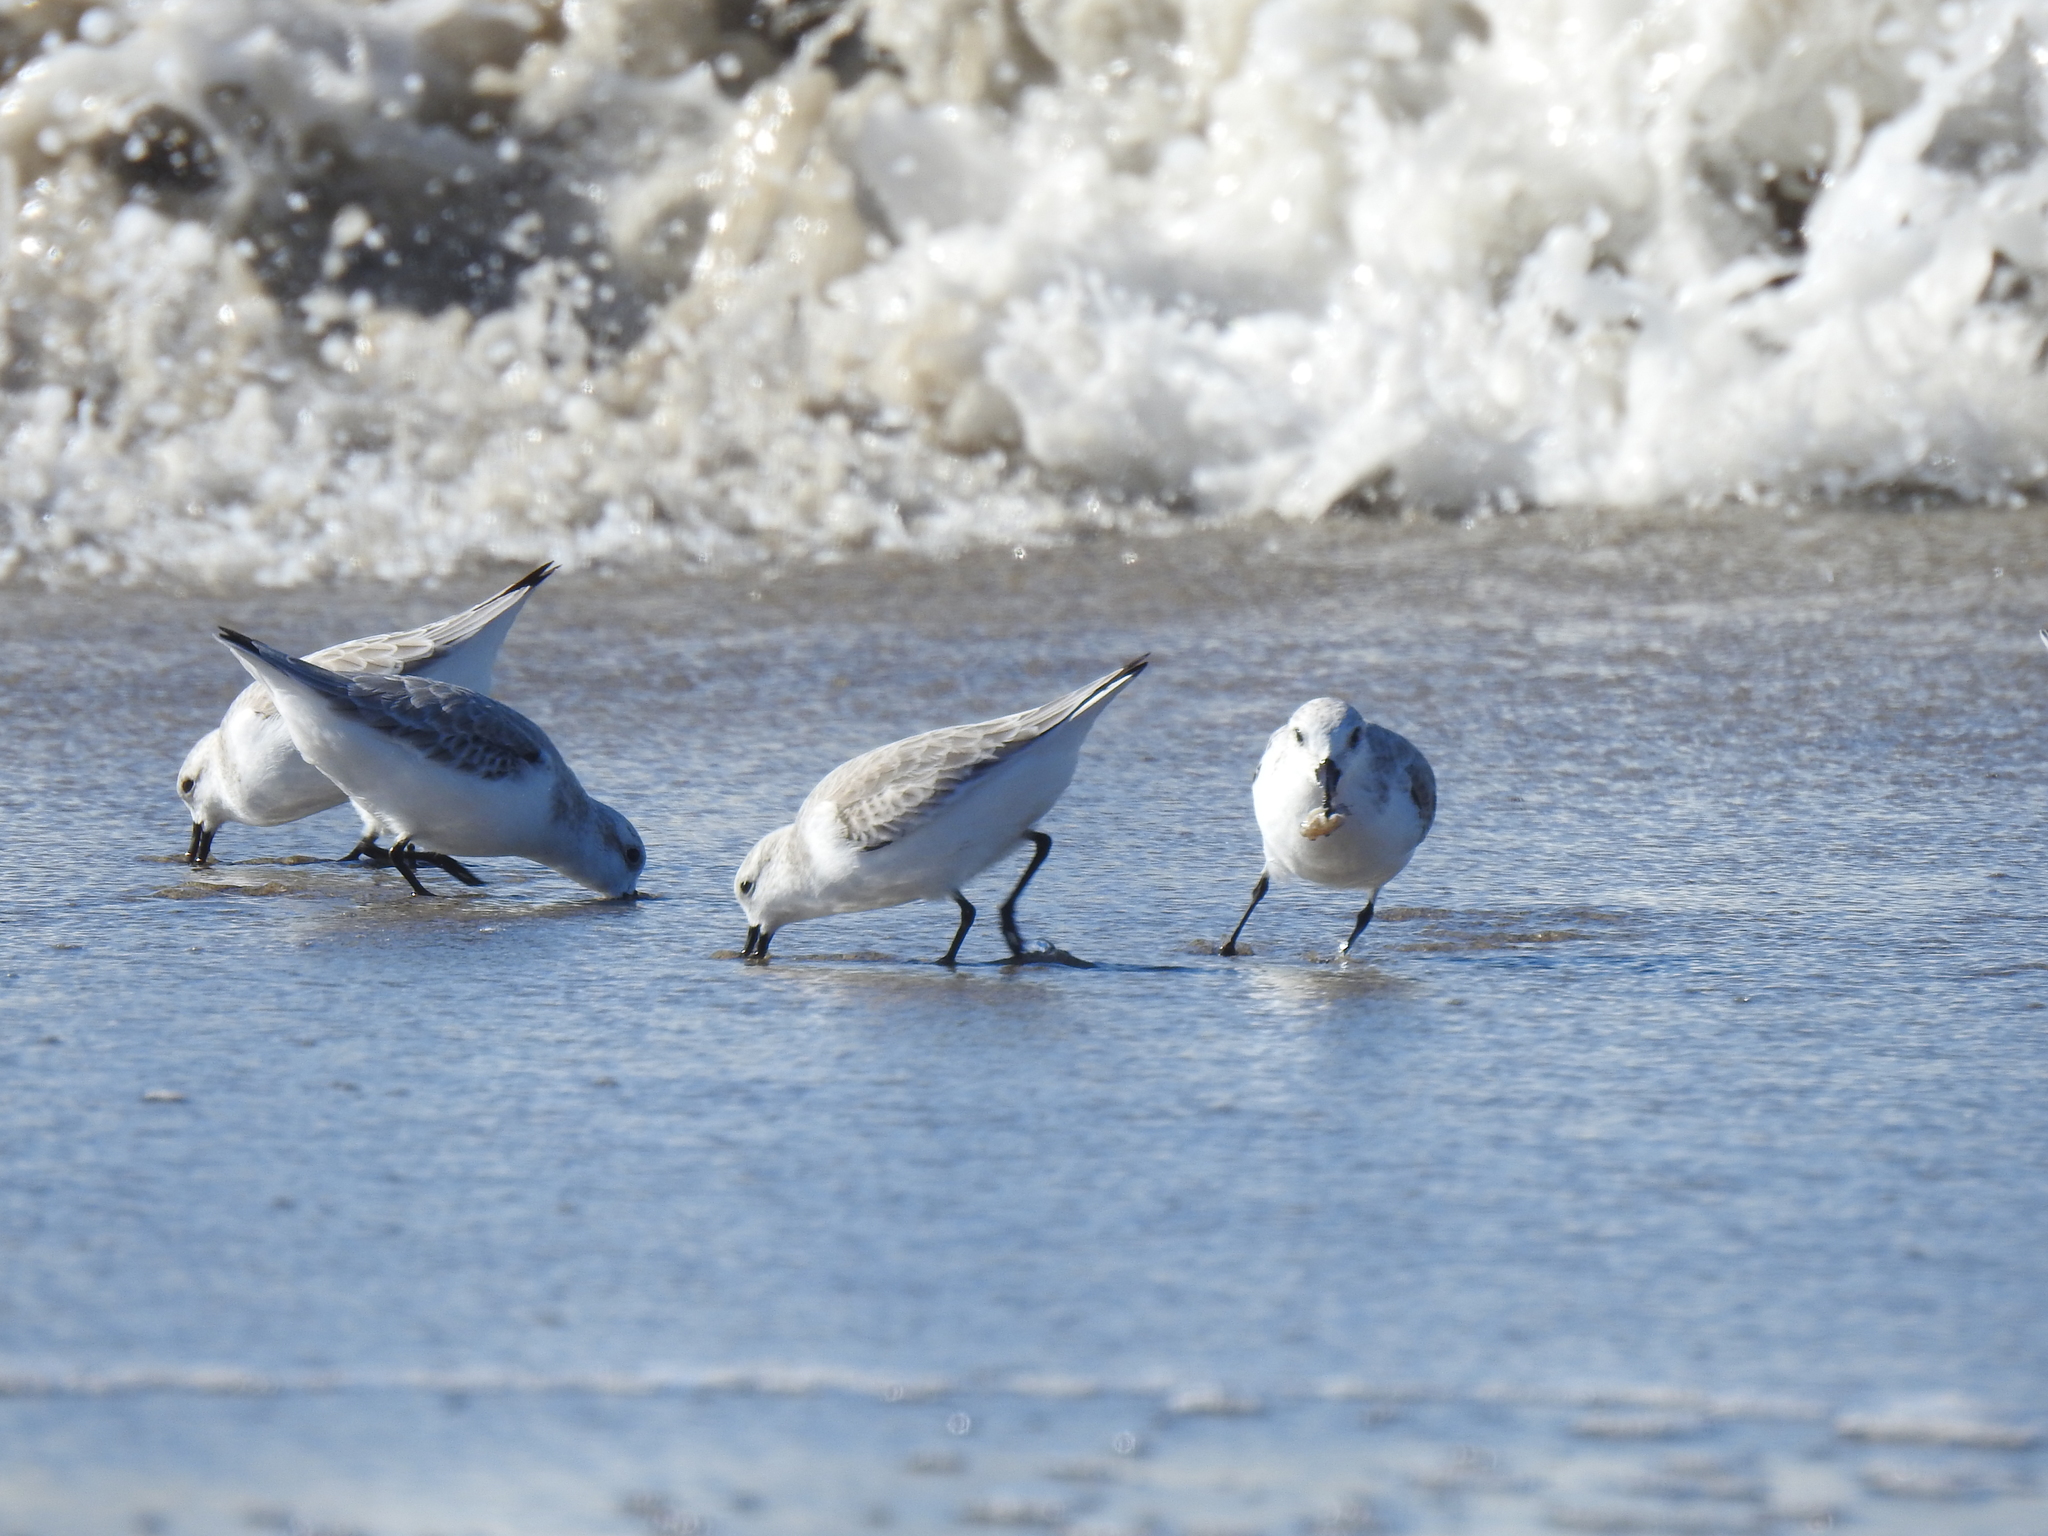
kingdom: Animalia
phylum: Chordata
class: Aves
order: Charadriiformes
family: Scolopacidae
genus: Calidris
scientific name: Calidris alba
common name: Sanderling
